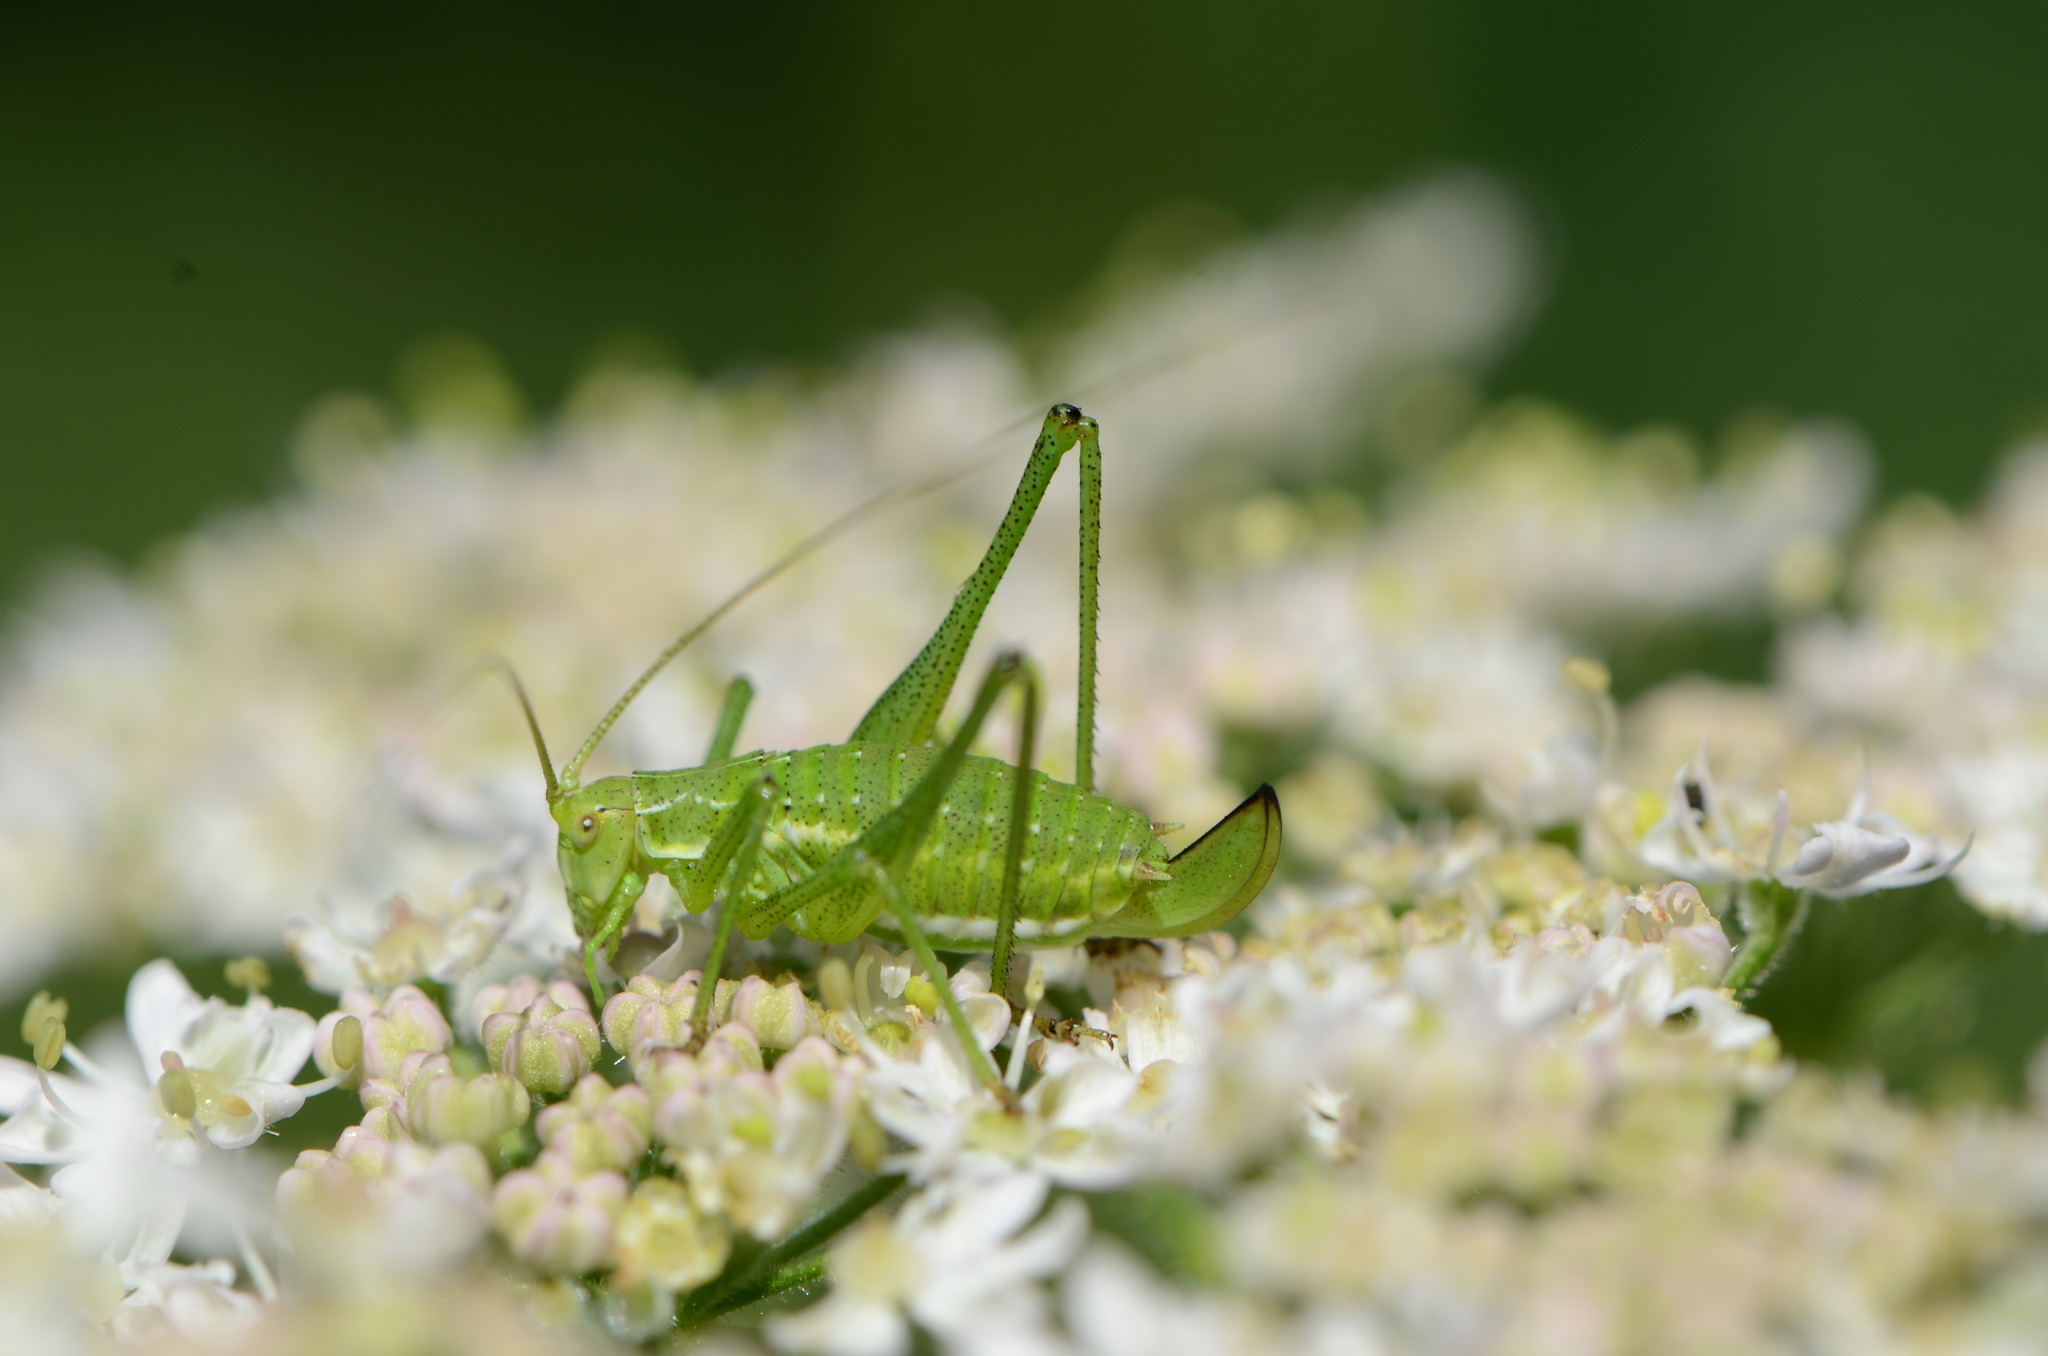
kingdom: Animalia
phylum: Arthropoda
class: Insecta
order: Orthoptera
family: Tettigoniidae
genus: Leptophyes
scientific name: Leptophyes albovittata
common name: Striped bush-cricket
